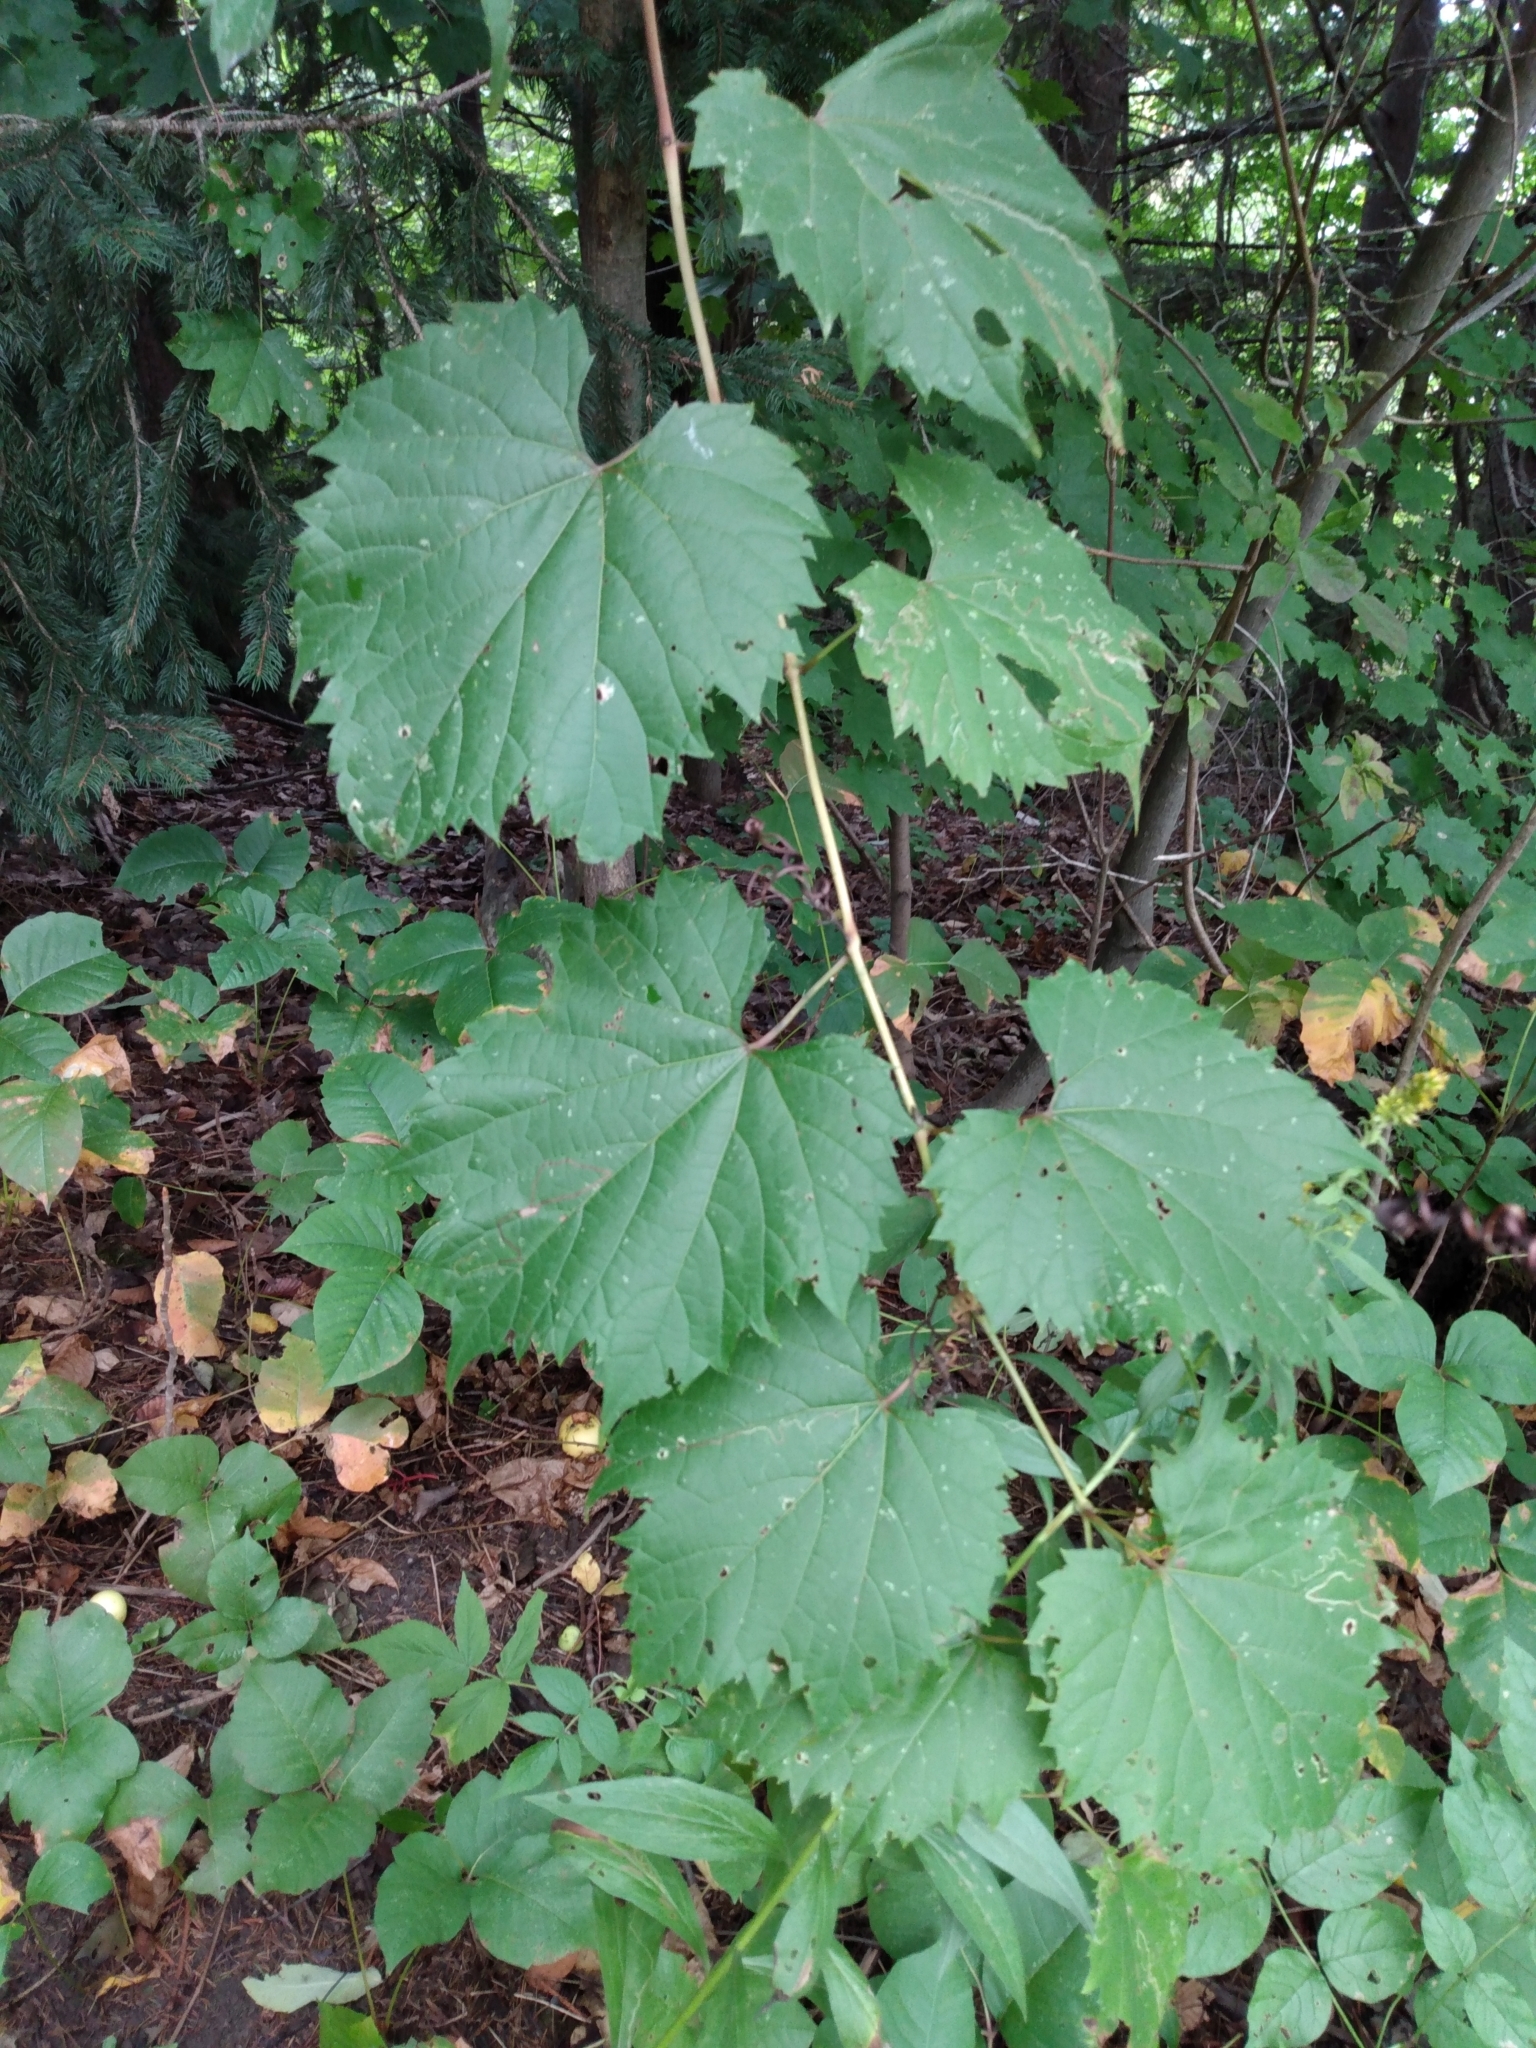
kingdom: Plantae
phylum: Tracheophyta
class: Magnoliopsida
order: Vitales
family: Vitaceae
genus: Vitis
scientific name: Vitis riparia
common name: Frost grape
